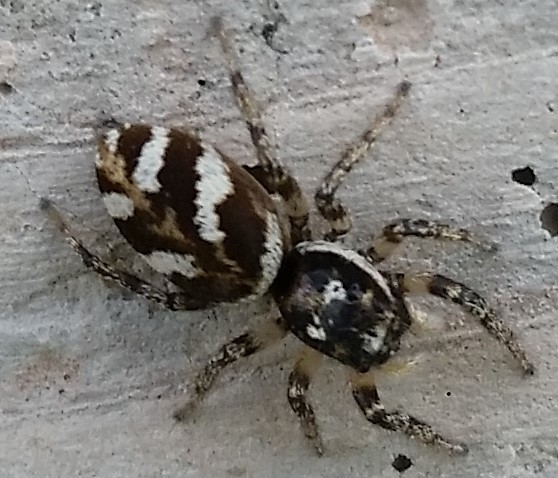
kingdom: Animalia
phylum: Arthropoda
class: Arachnida
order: Araneae
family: Salticidae
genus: Salticus
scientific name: Salticus scenicus
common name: Zebra jumper
